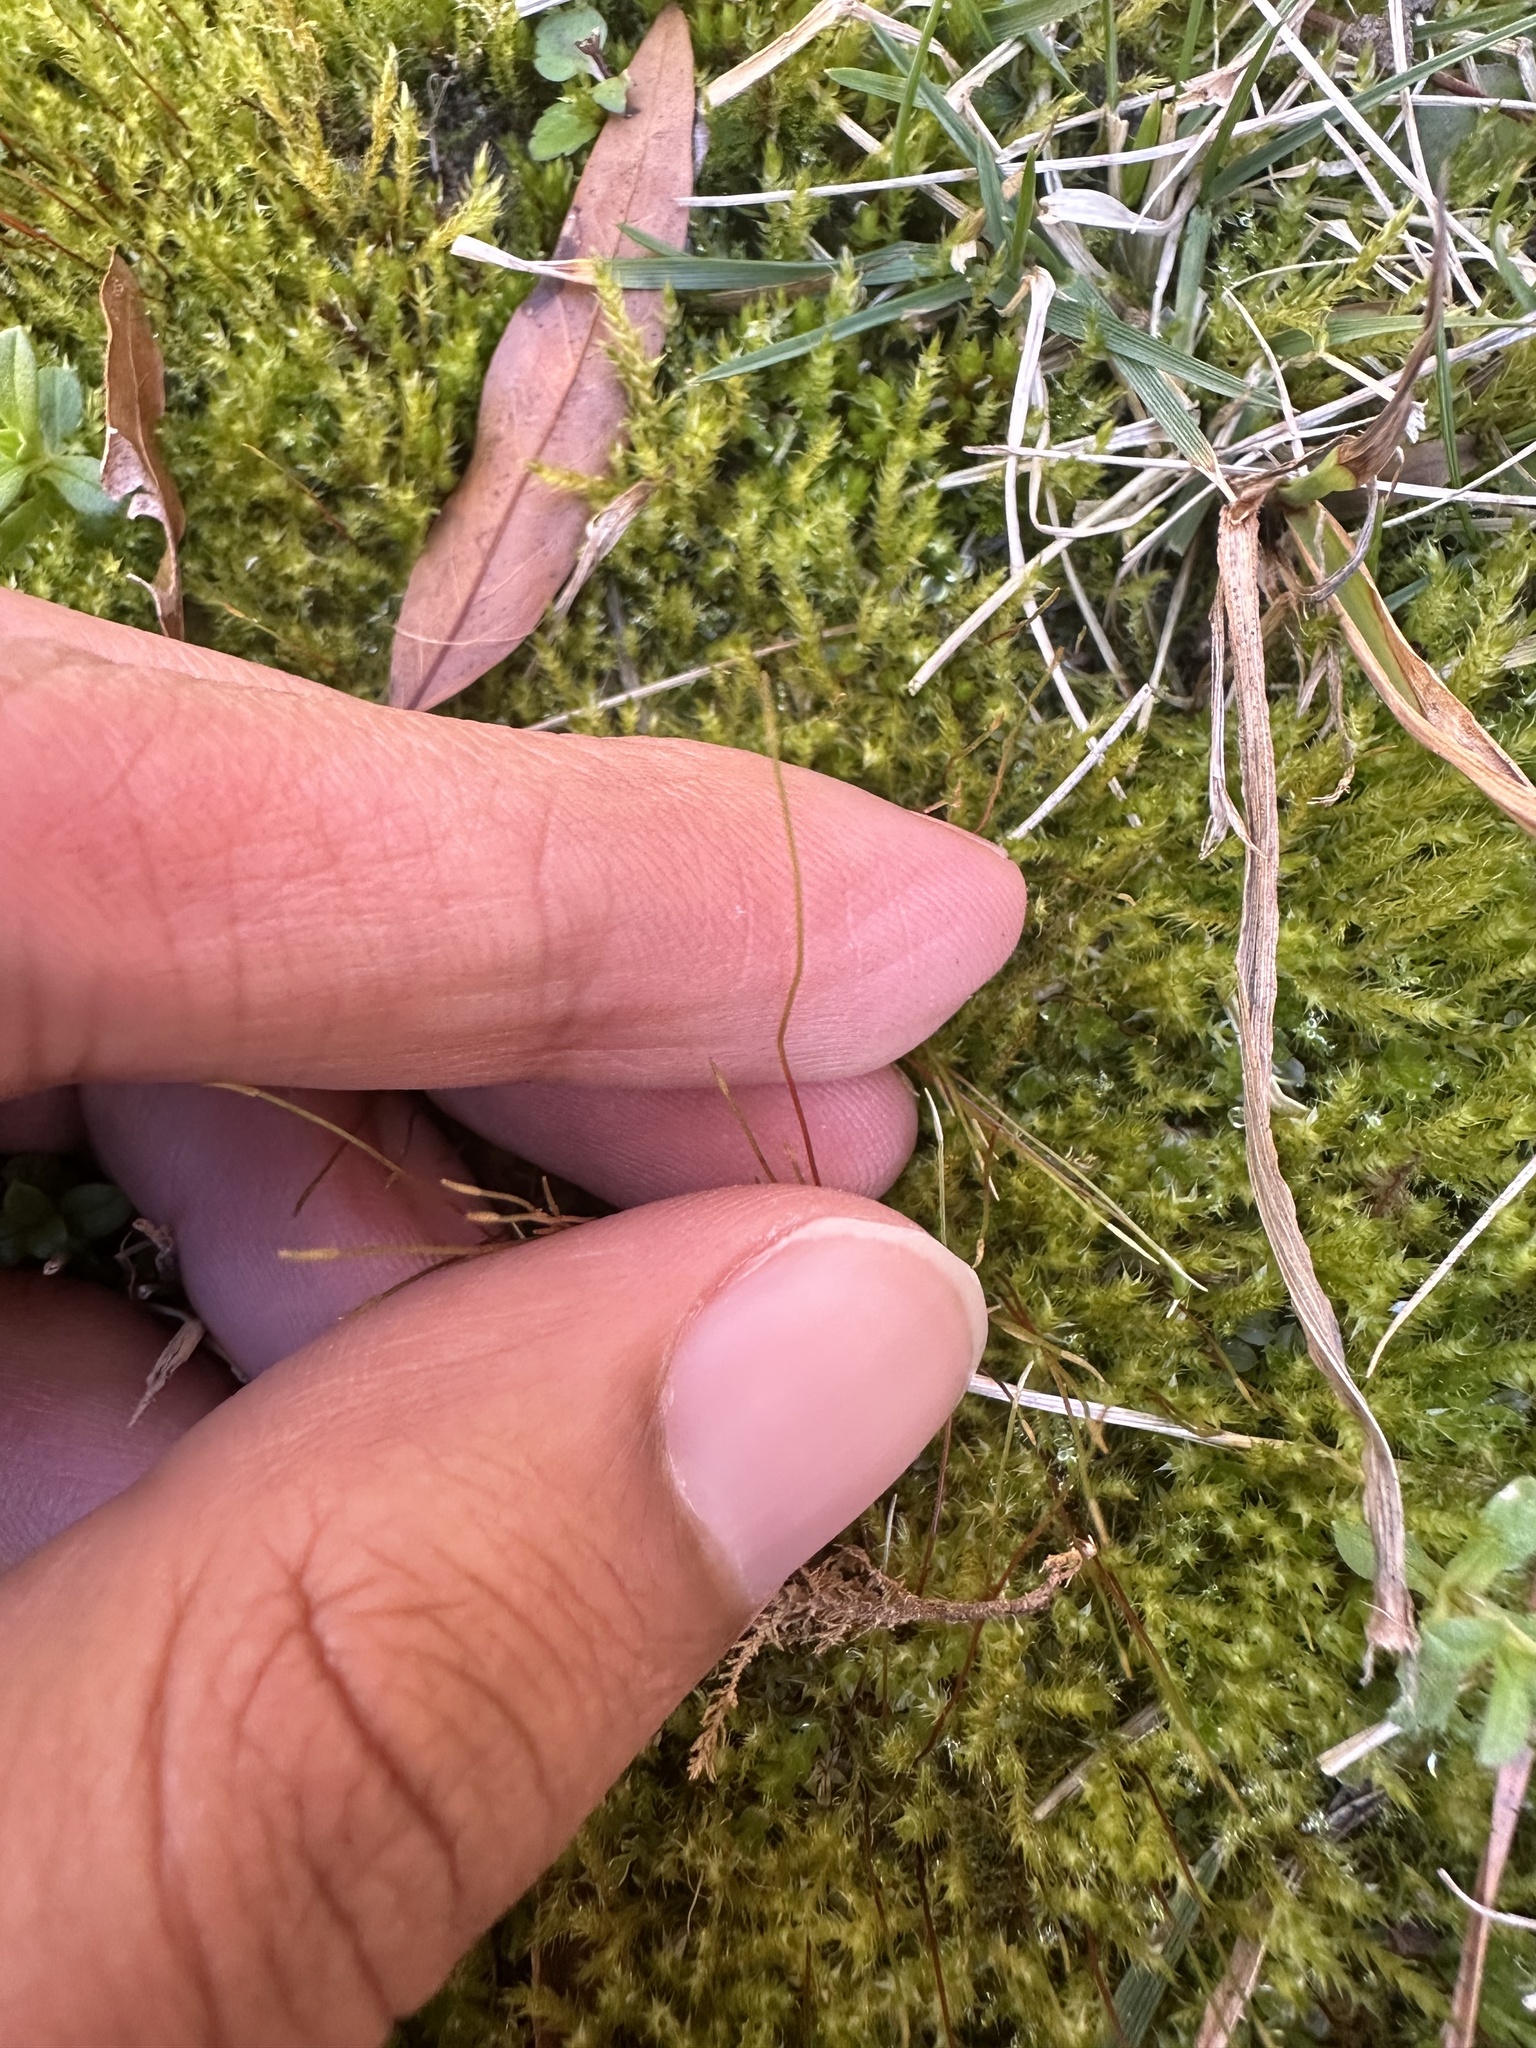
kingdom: Plantae
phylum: Bryophyta
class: Bryopsida
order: Hypnales
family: Amblystegiaceae
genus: Campylium
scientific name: Campylium chrysophyllum
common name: Goldenleaf campylium moss
